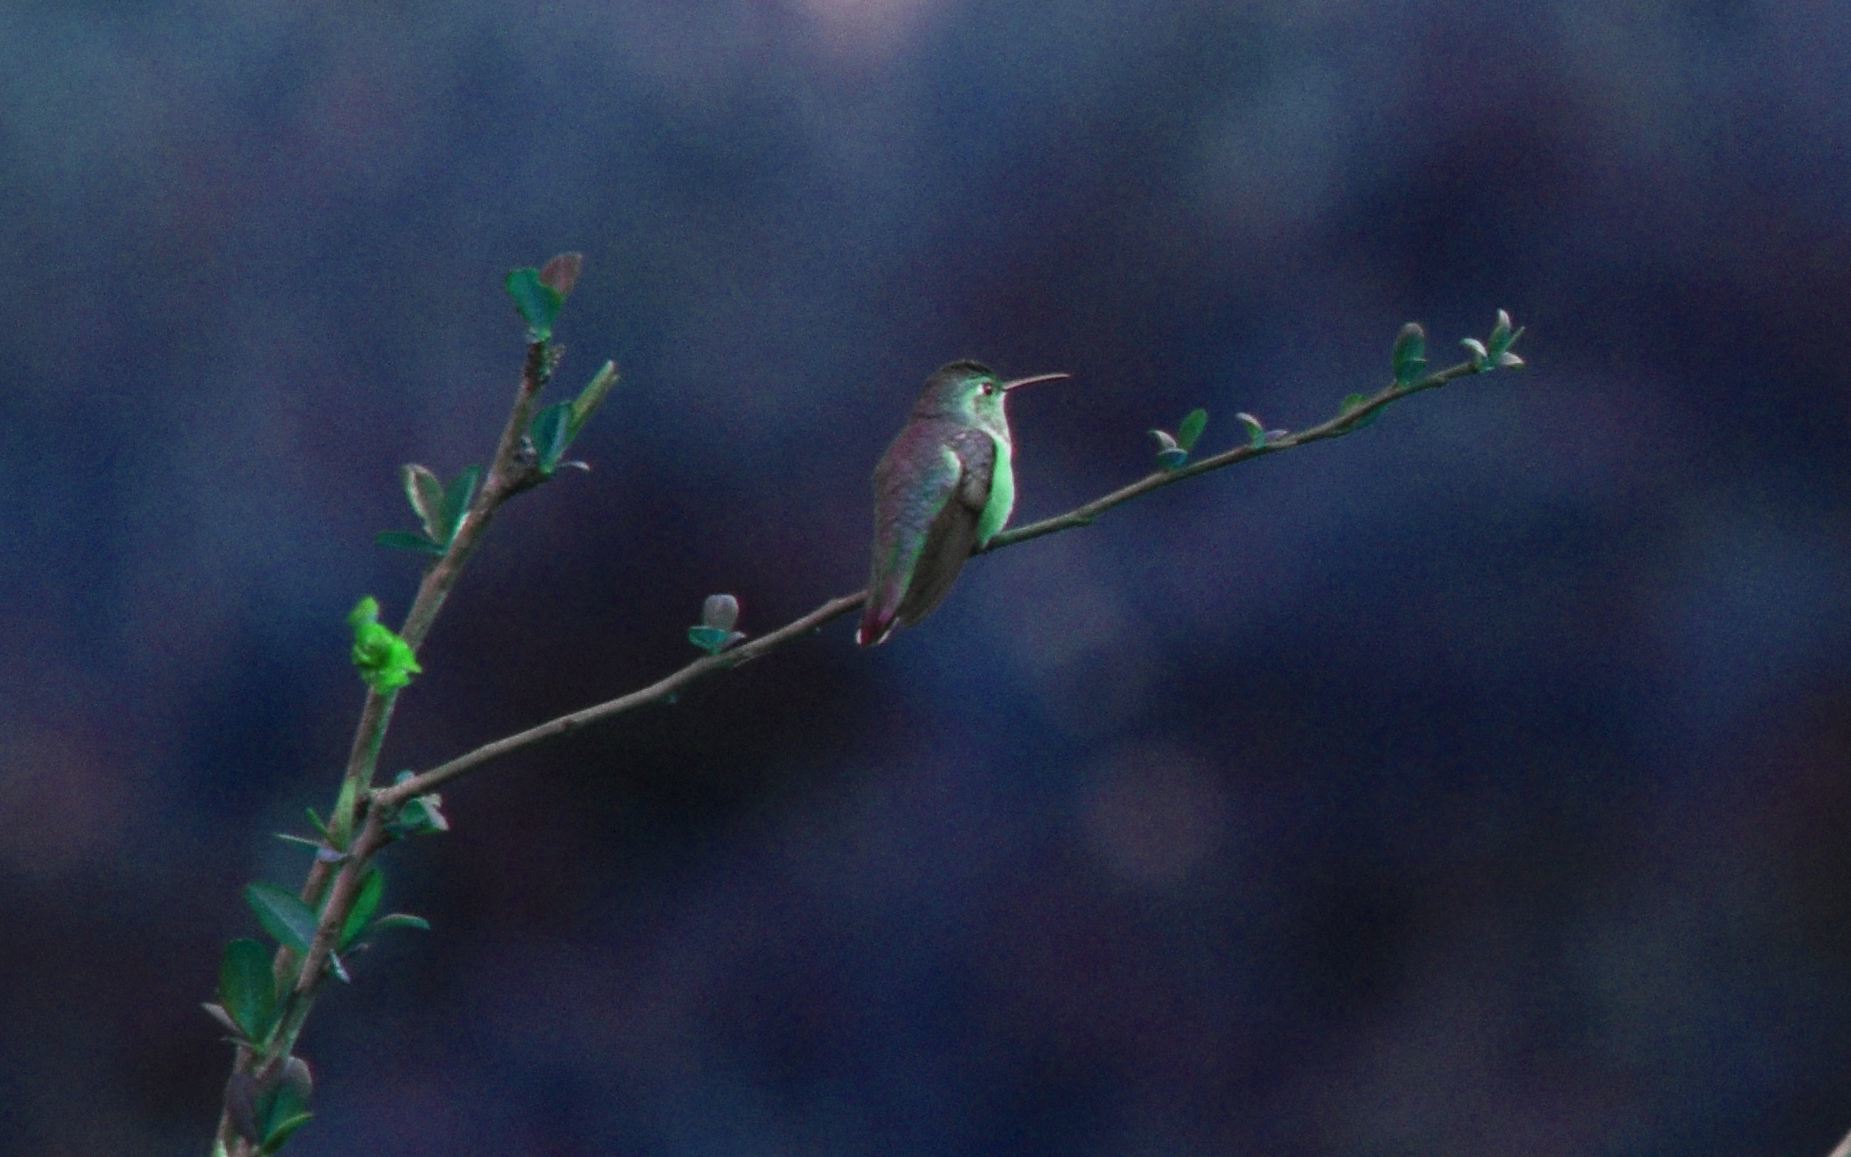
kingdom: Animalia
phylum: Chordata
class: Aves
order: Apodiformes
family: Trochilidae
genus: Selasphorus
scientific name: Selasphorus sasin
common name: Allen's hummingbird
